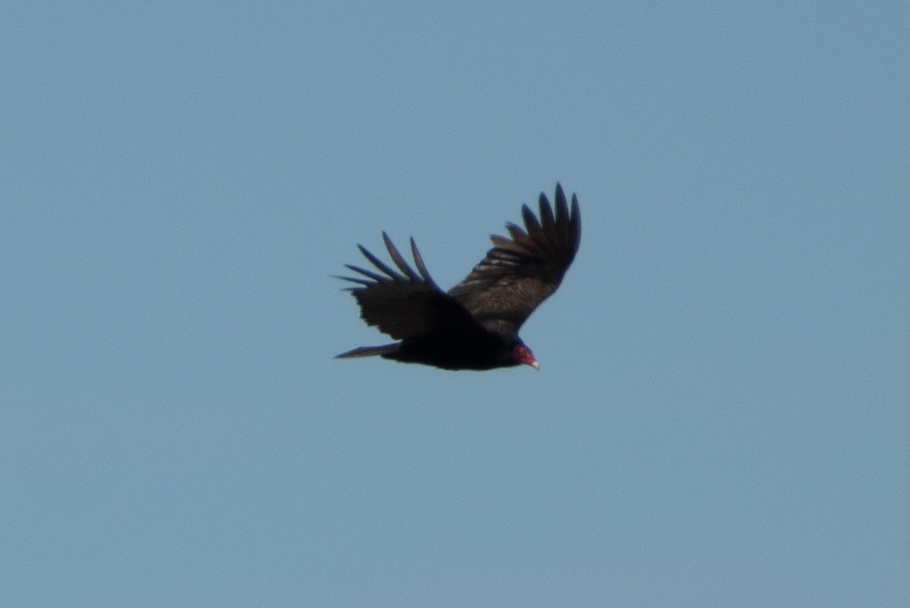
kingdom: Animalia
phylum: Chordata
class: Aves
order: Accipitriformes
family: Cathartidae
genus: Cathartes
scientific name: Cathartes aura
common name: Turkey vulture
